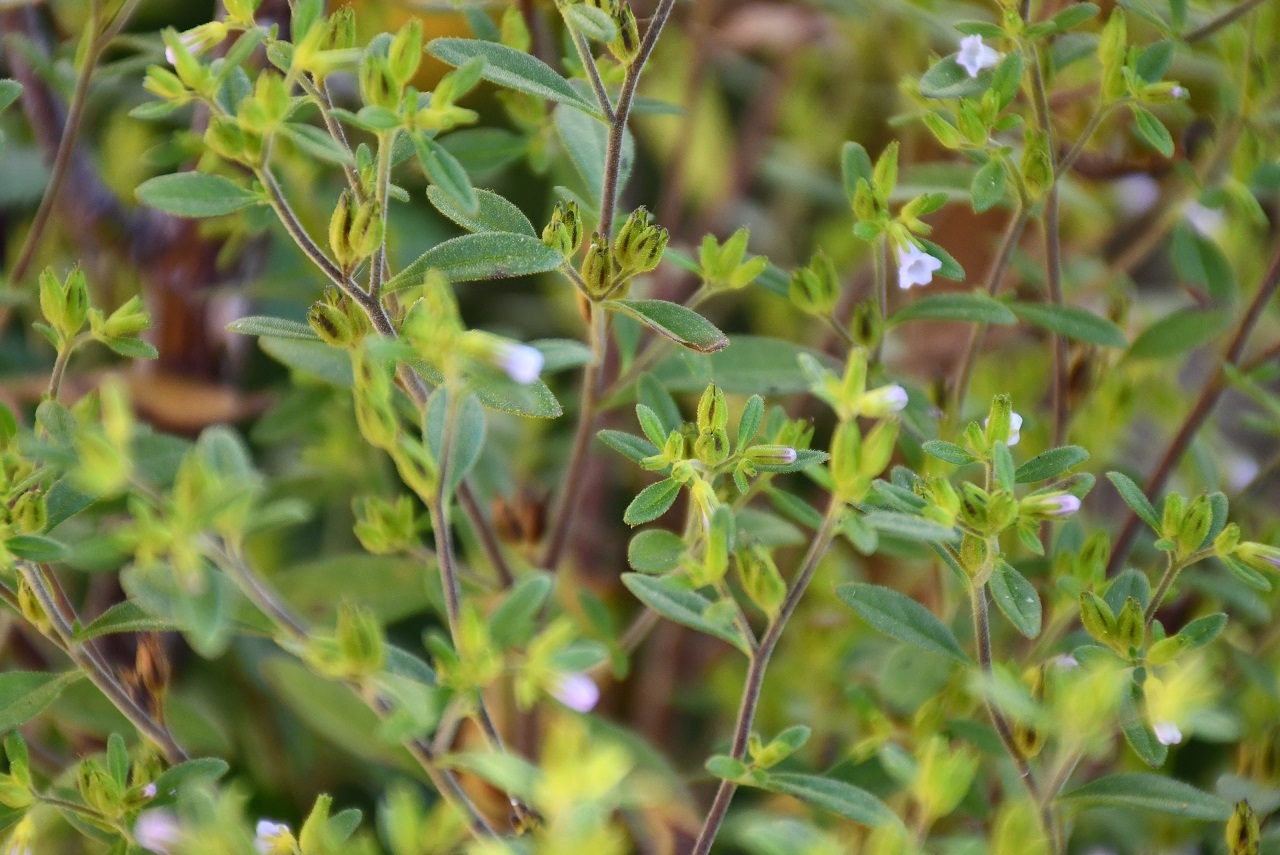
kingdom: Plantae
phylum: Tracheophyta
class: Magnoliopsida
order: Boraginales
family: Namaceae
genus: Nama
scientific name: Nama dichotoma
